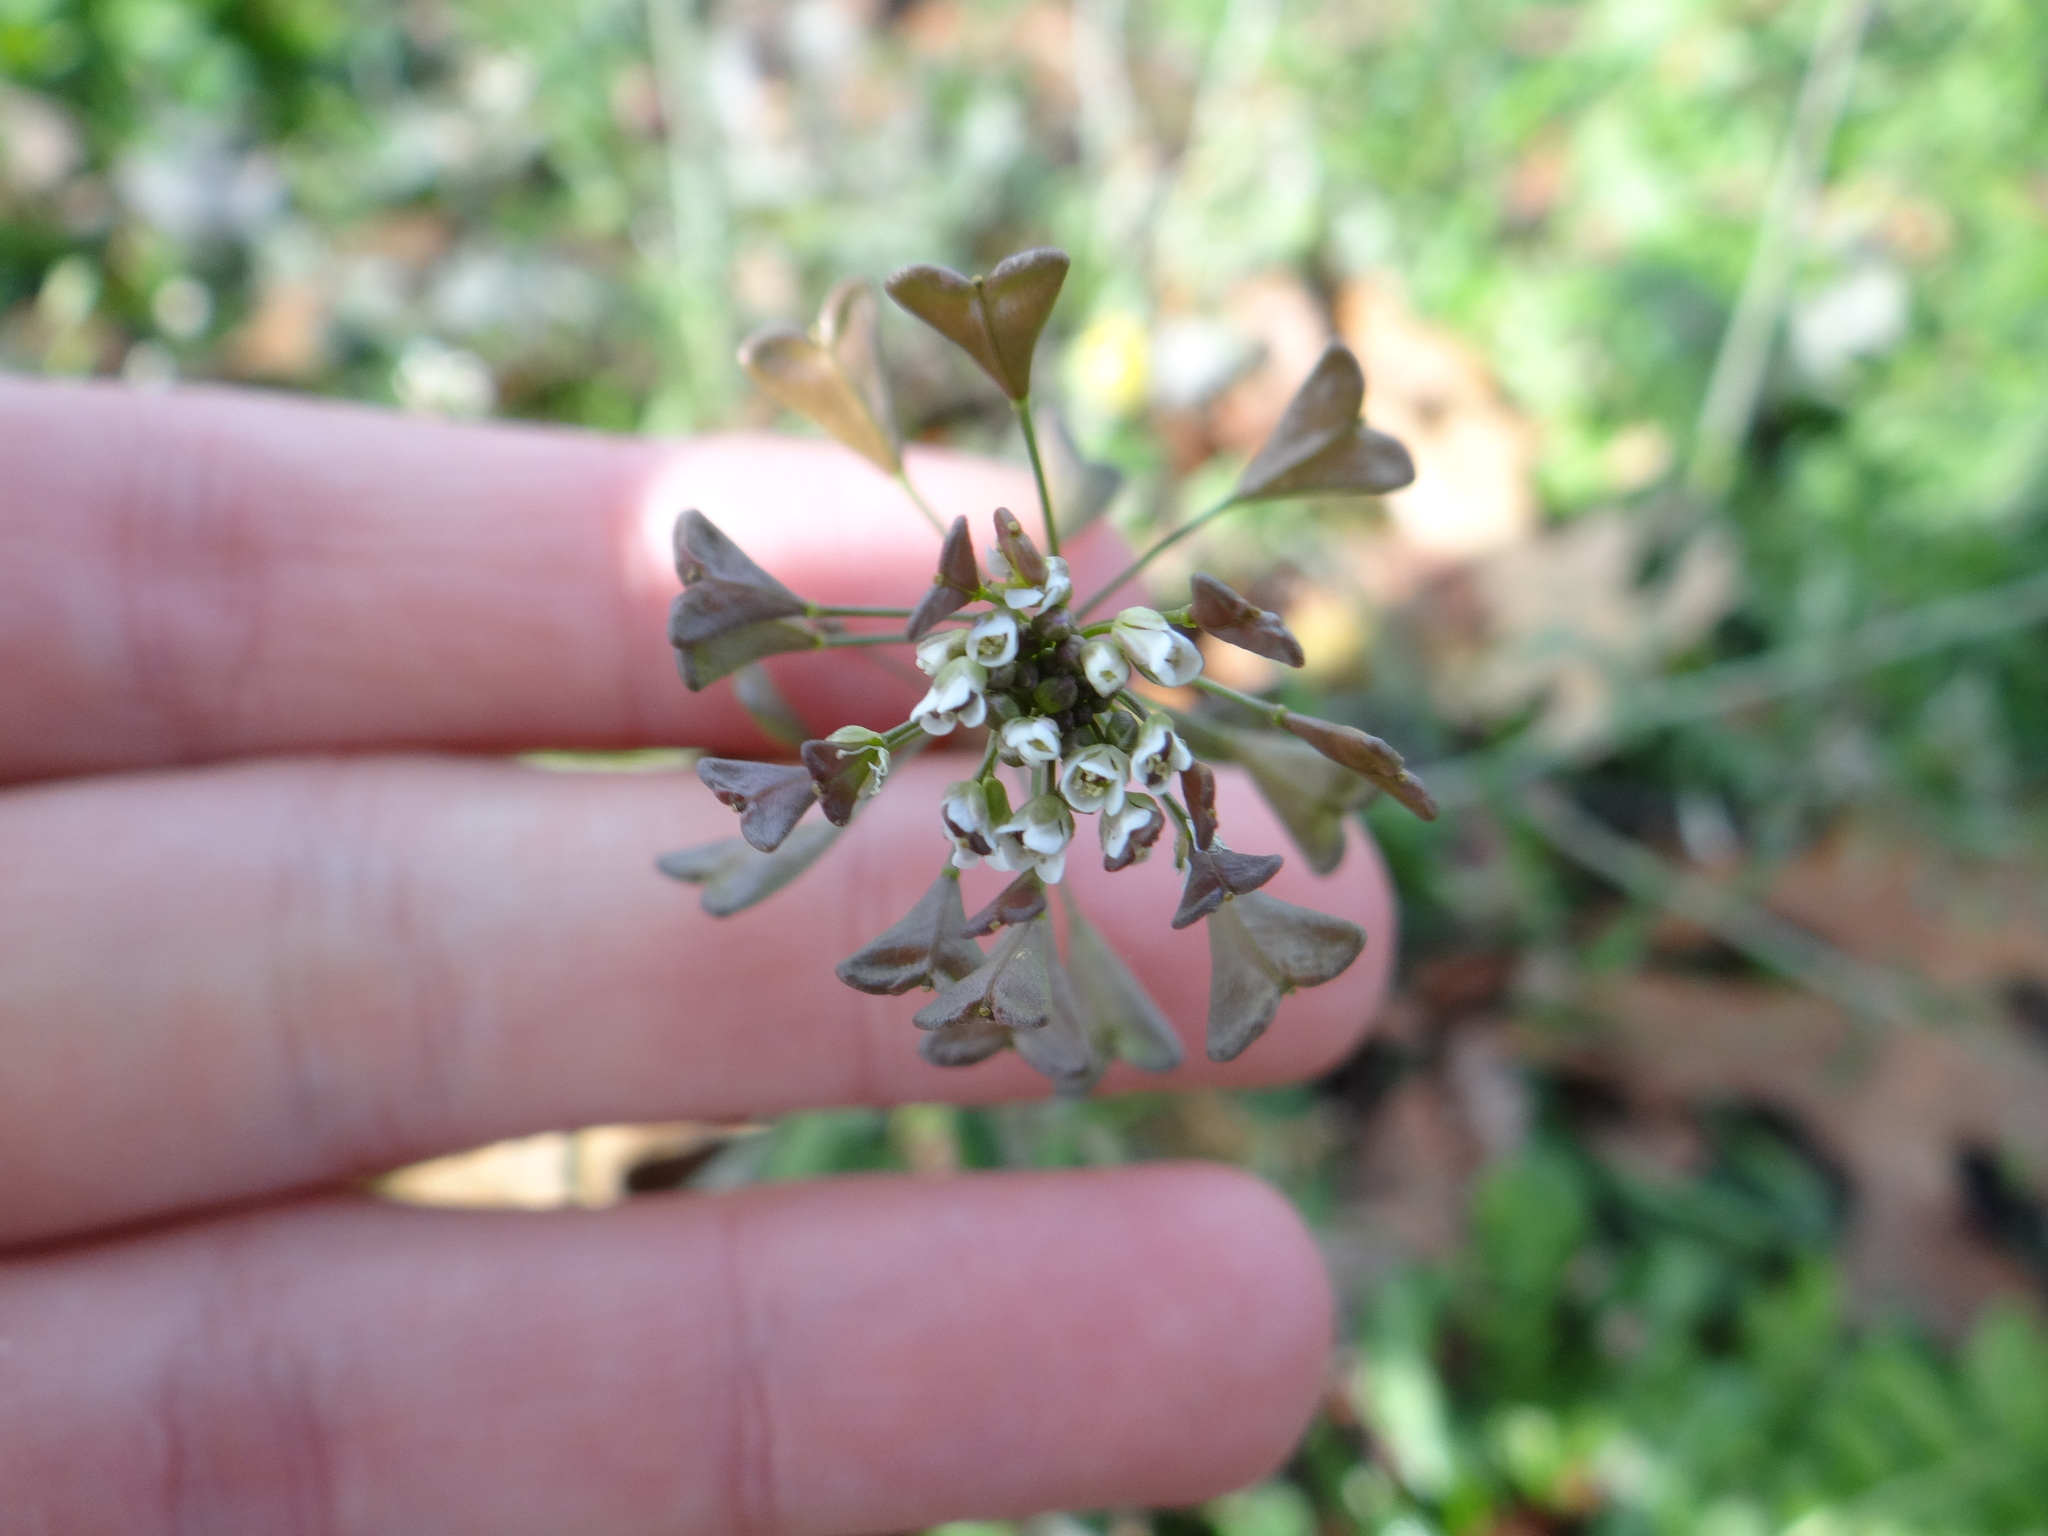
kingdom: Plantae
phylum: Tracheophyta
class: Magnoliopsida
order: Brassicales
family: Brassicaceae
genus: Capsella
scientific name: Capsella bursa-pastoris
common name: Shepherd's purse
